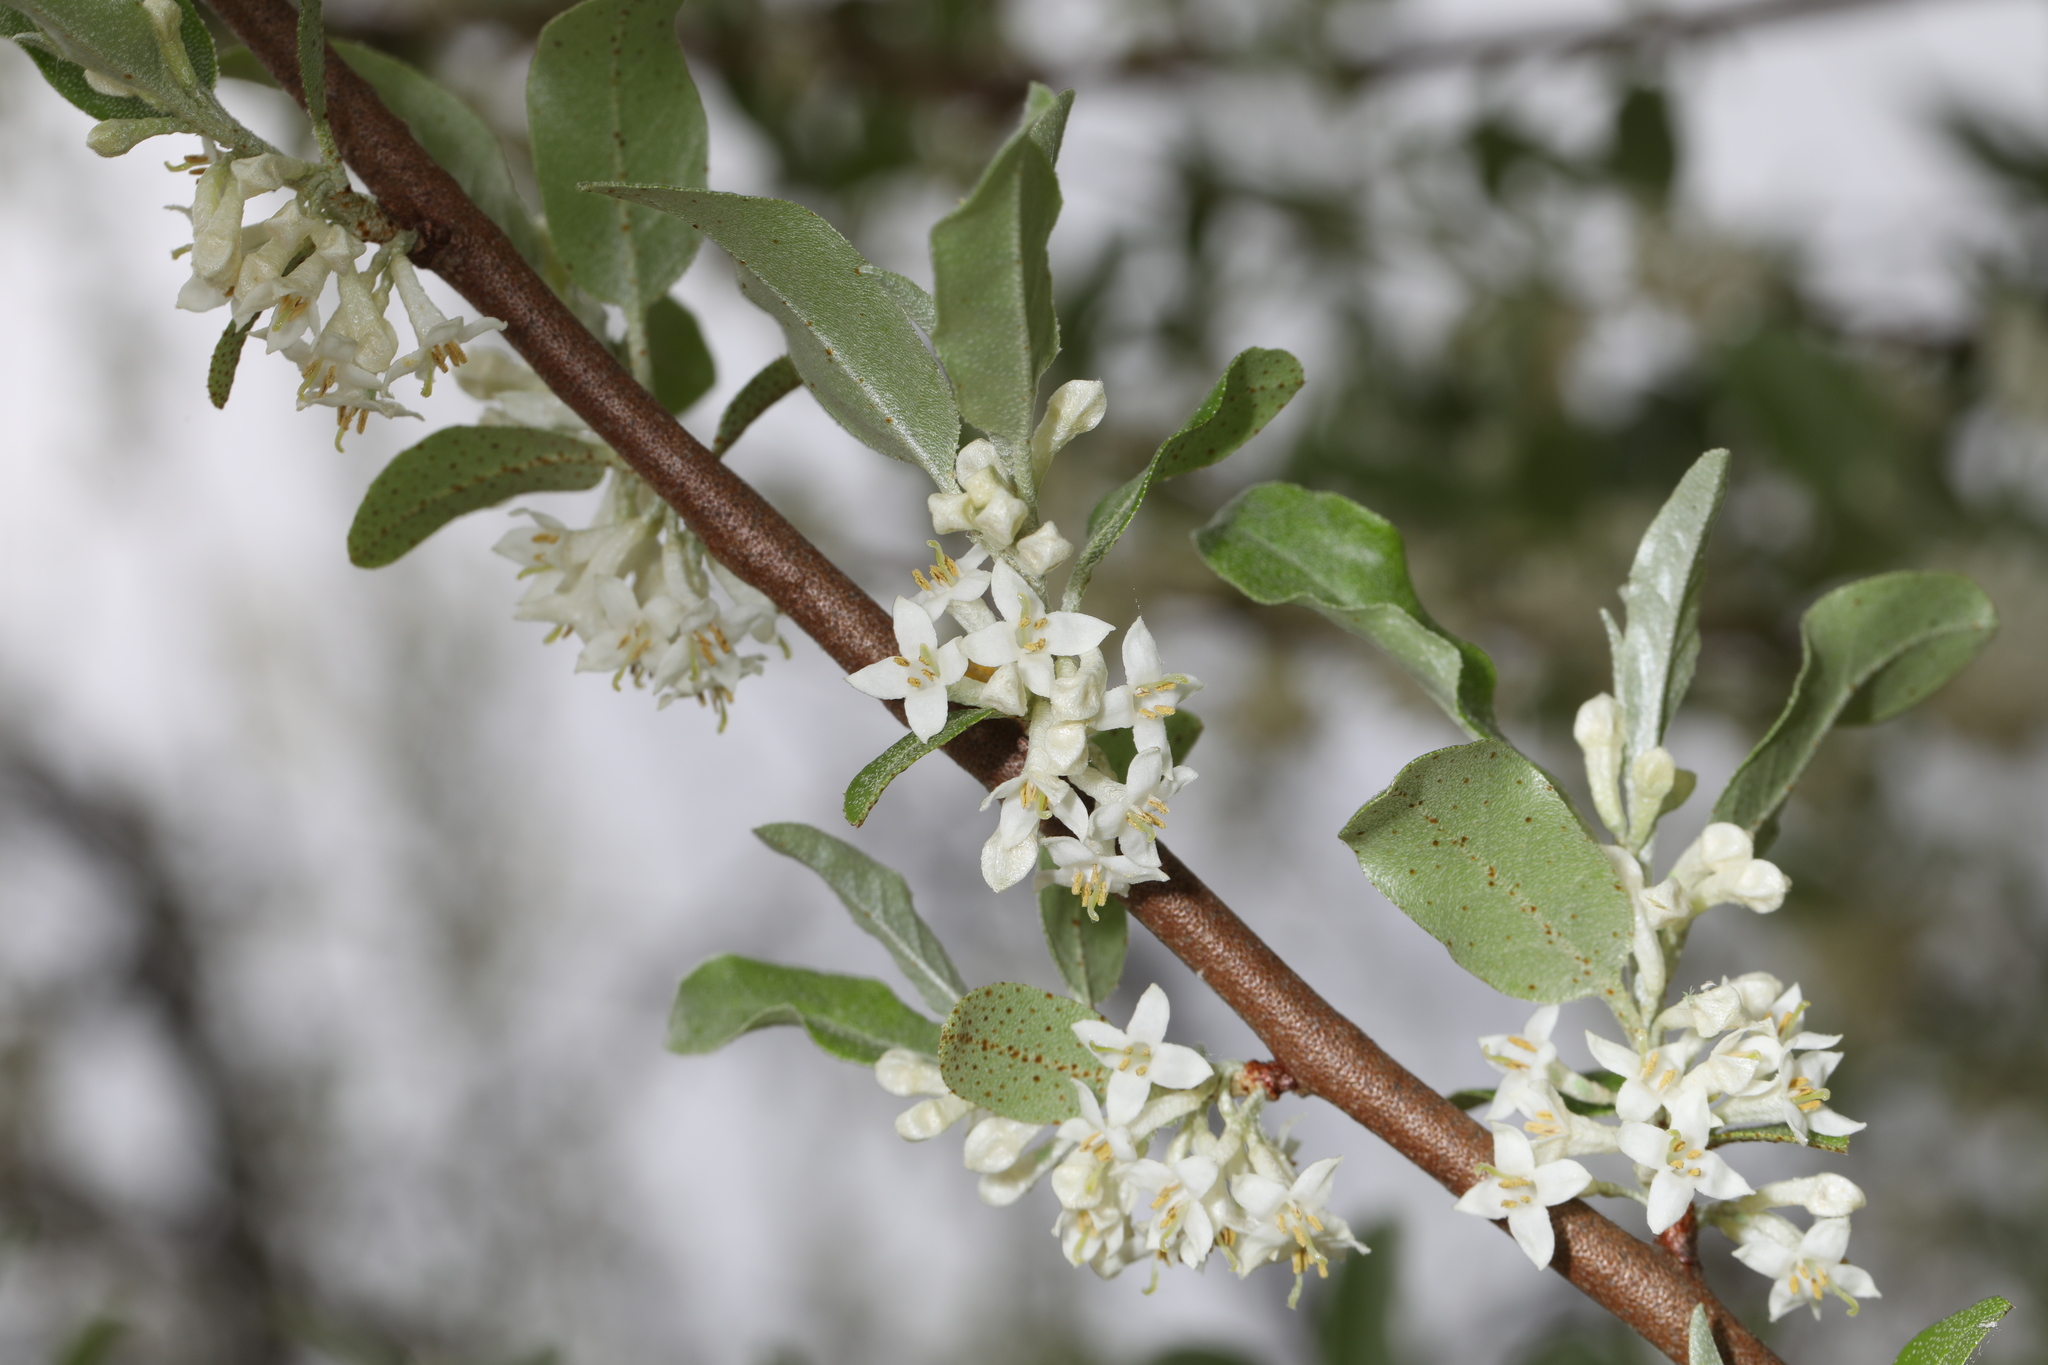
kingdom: Plantae
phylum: Tracheophyta
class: Magnoliopsida
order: Rosales
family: Elaeagnaceae
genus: Elaeagnus
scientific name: Elaeagnus umbellata
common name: Autumn olive
